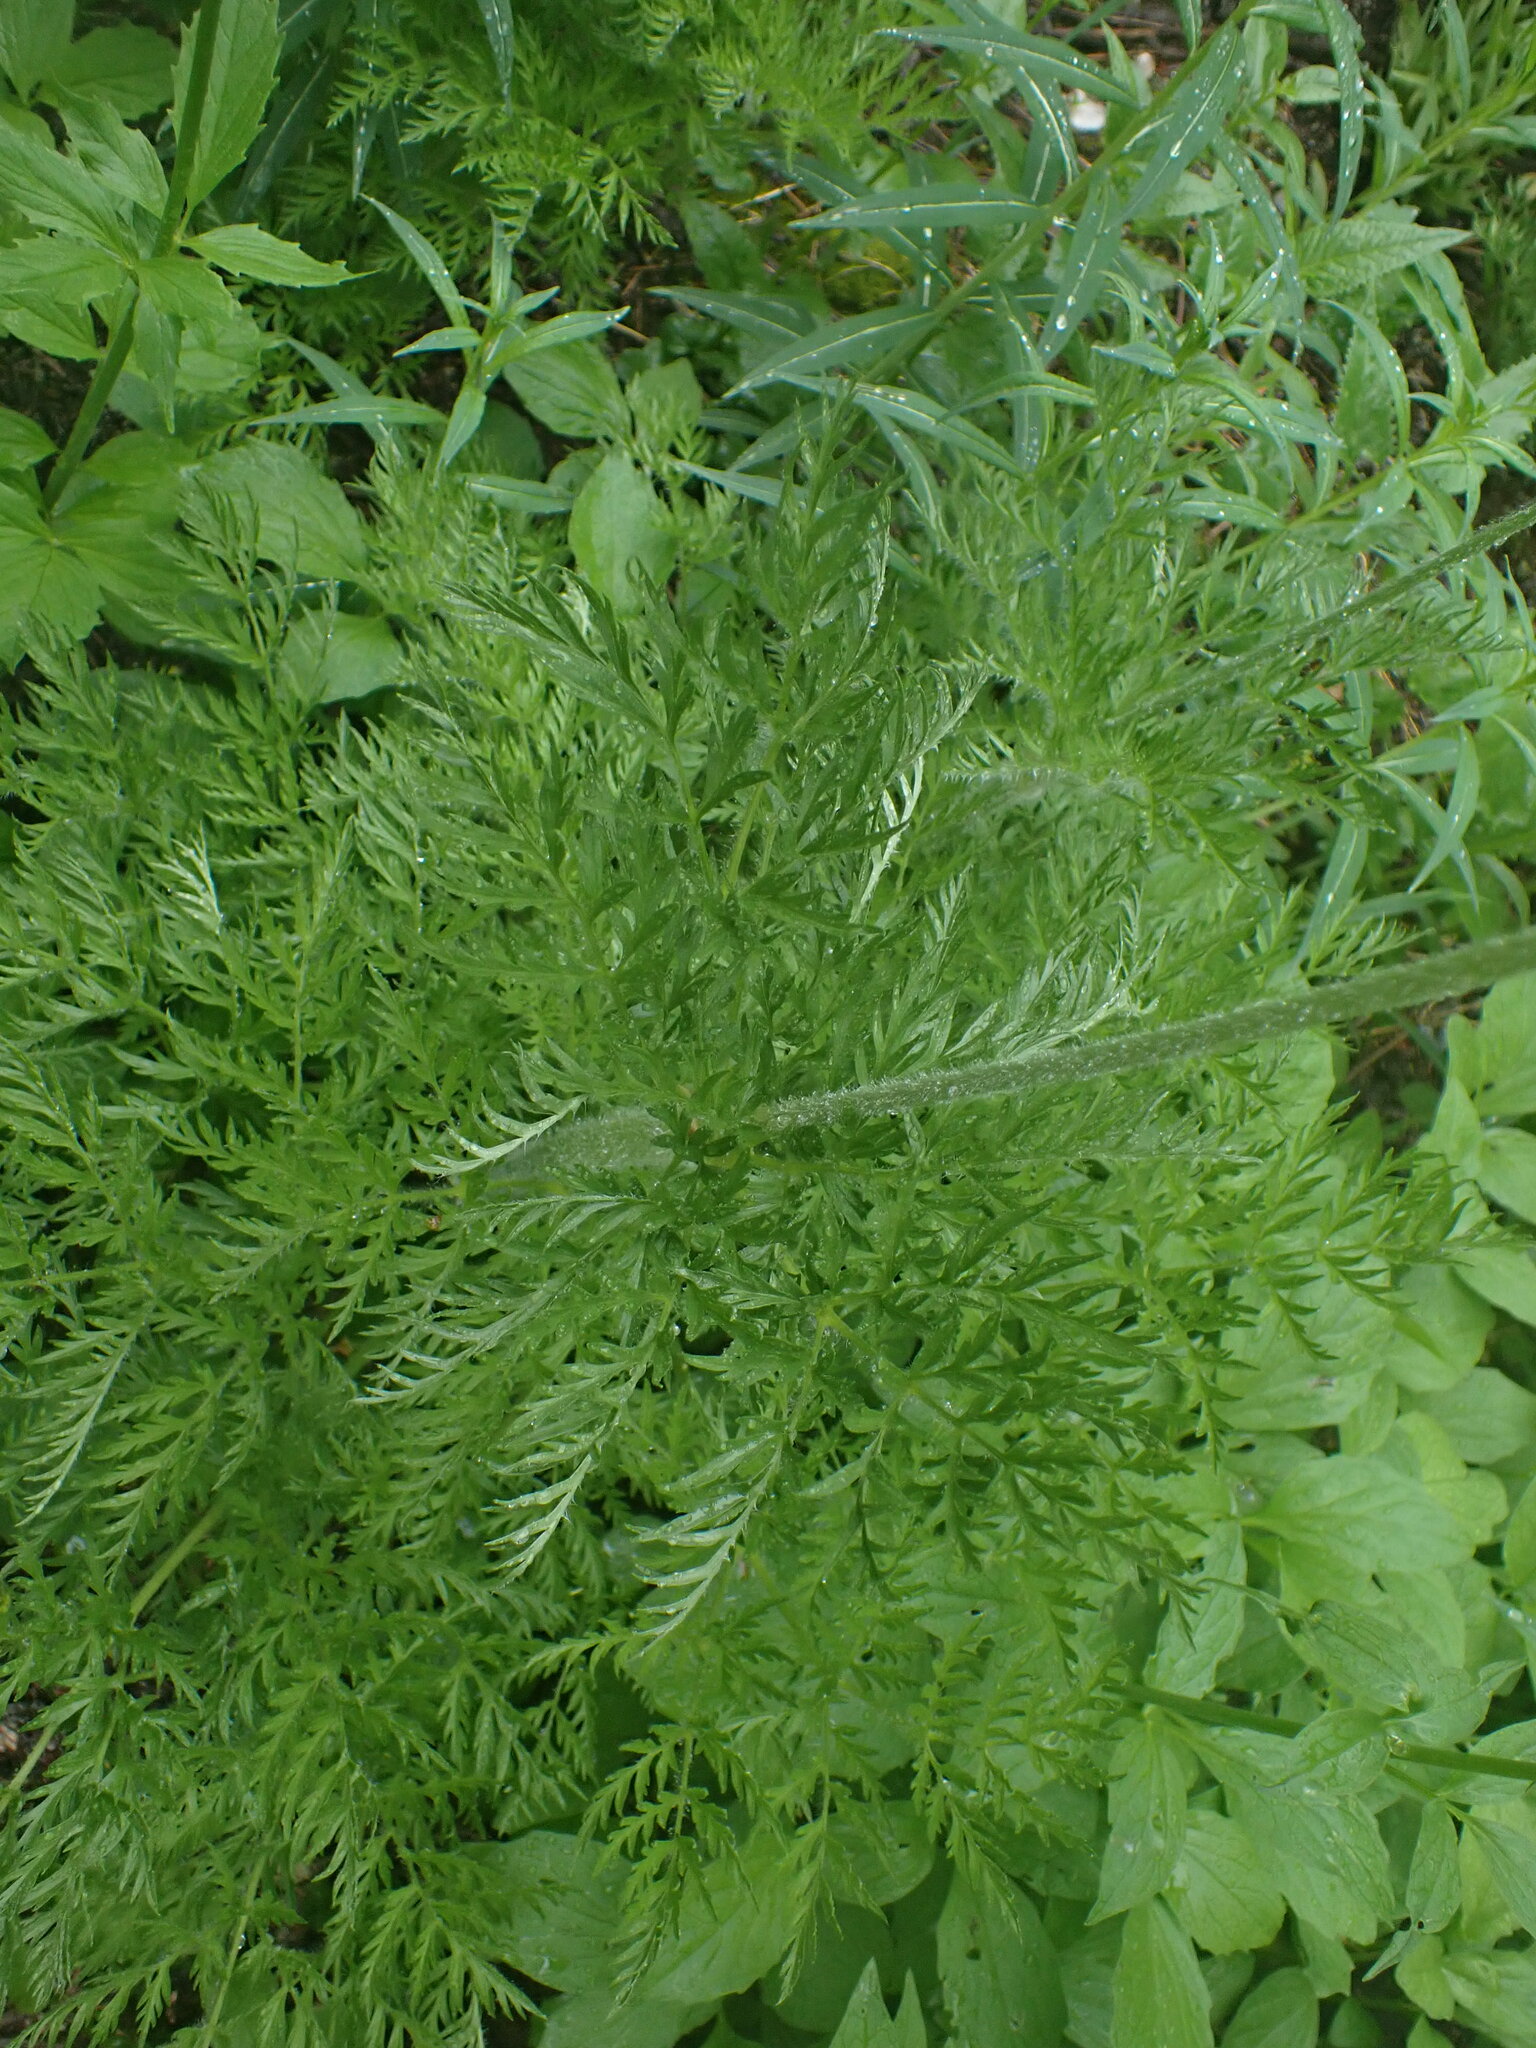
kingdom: Plantae
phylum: Tracheophyta
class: Magnoliopsida
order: Ranunculales
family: Ranunculaceae
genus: Pulsatilla
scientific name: Pulsatilla occidentalis
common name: Mountain pasqueflower
